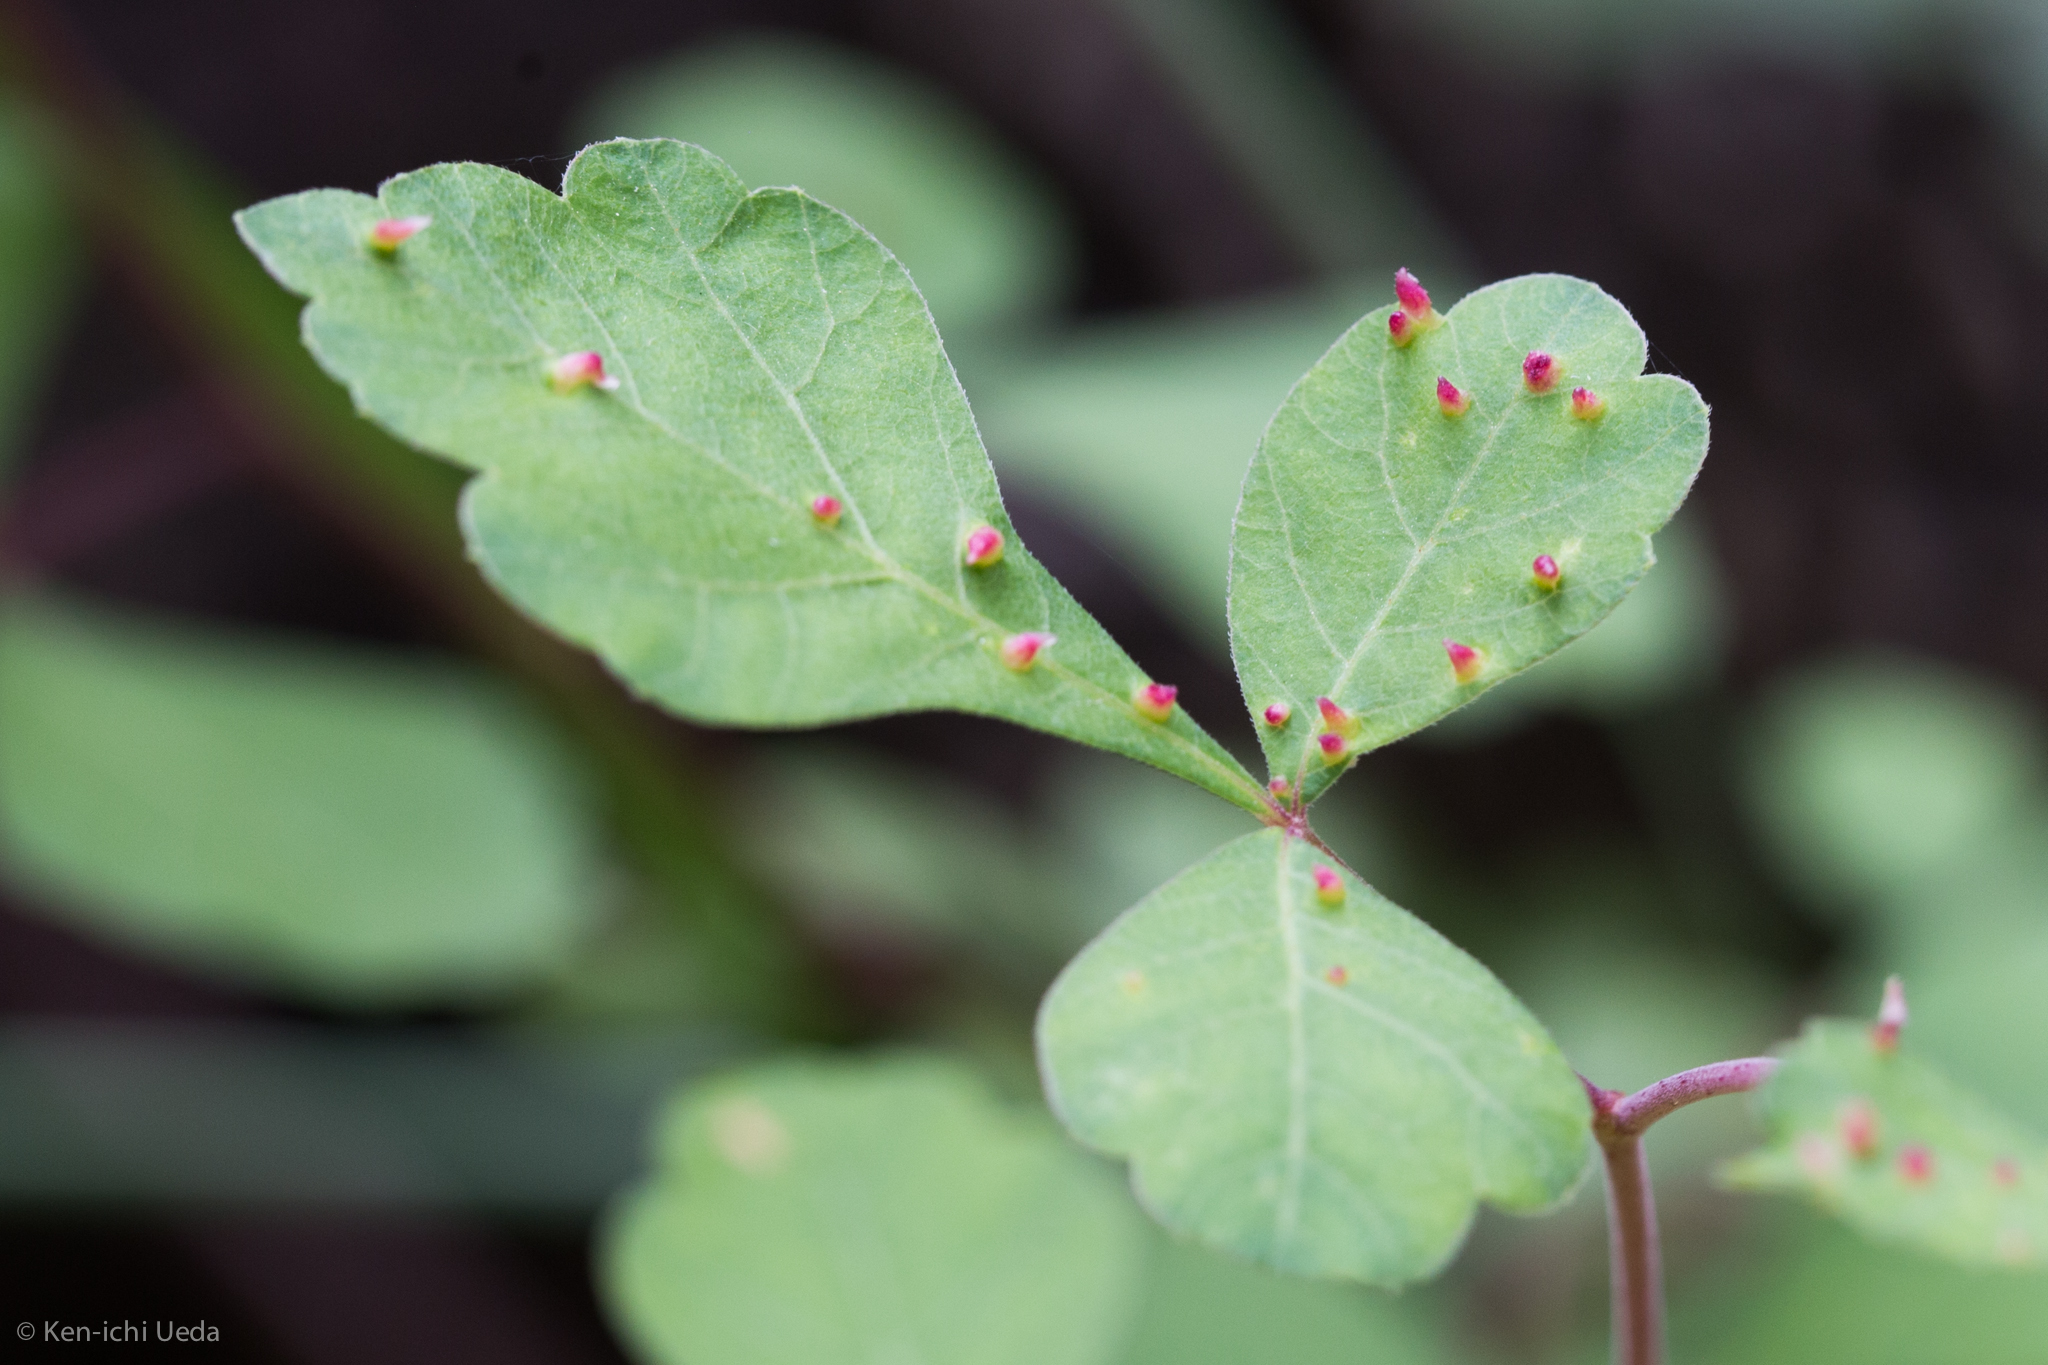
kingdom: Animalia
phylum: Arthropoda
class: Arachnida
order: Trombidiformes
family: Eriophyidae
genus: Aculops
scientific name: Aculops
